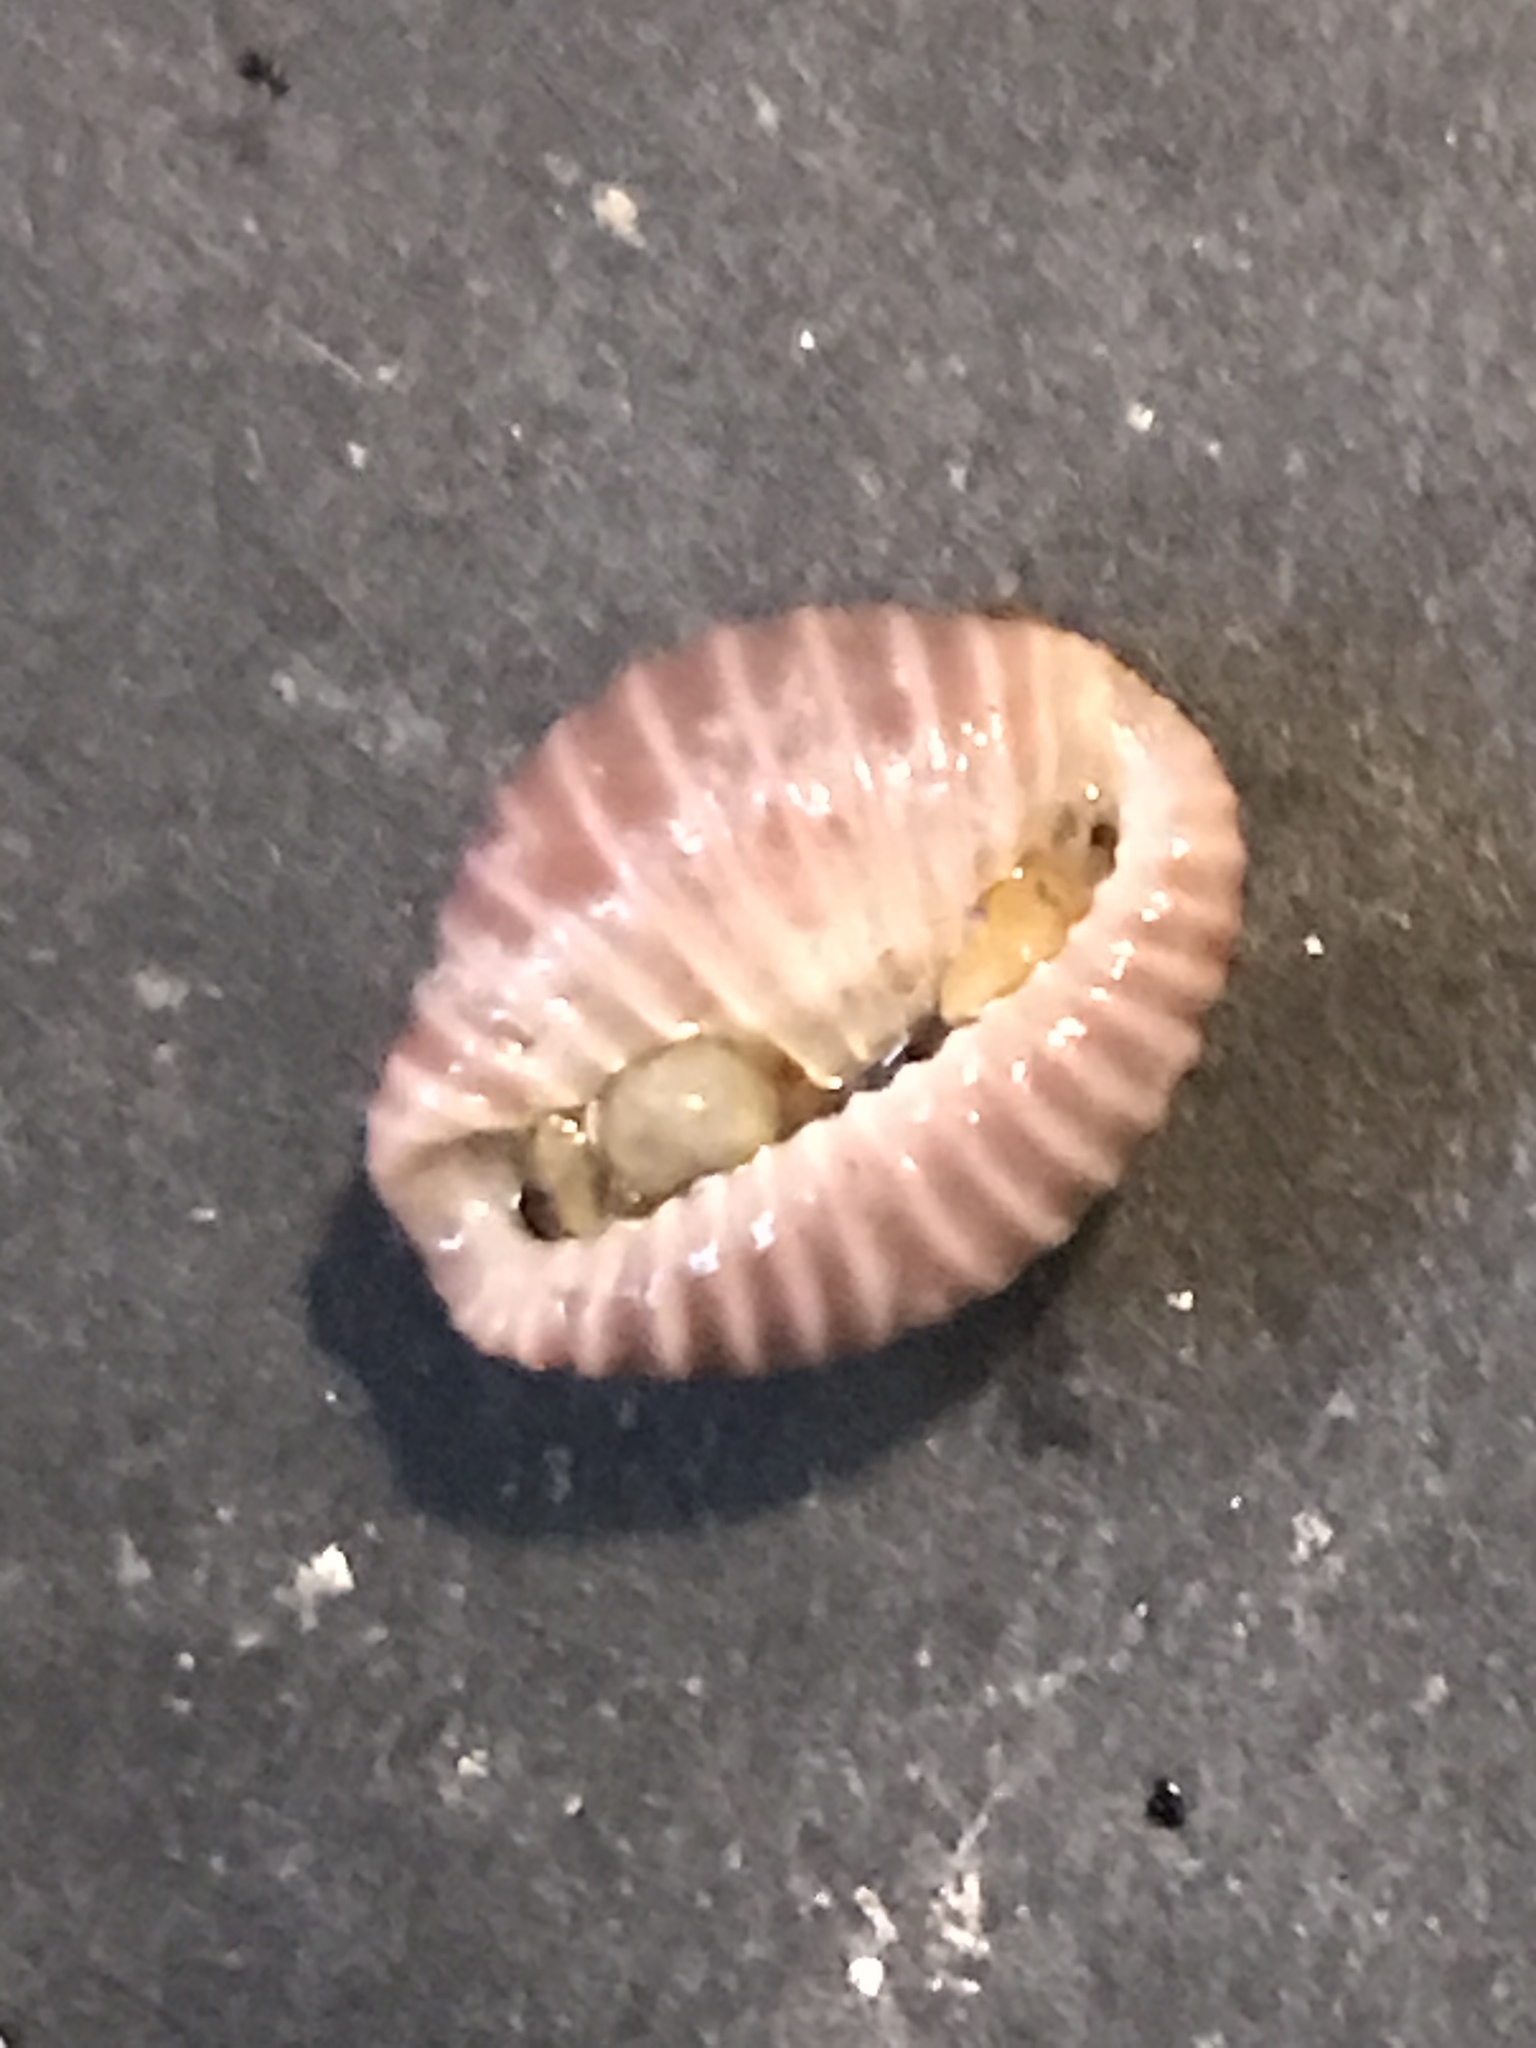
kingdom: Animalia
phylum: Mollusca
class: Gastropoda
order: Littorinimorpha
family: Triviidae
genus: Pseudopusula
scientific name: Pseudopusula californiana
